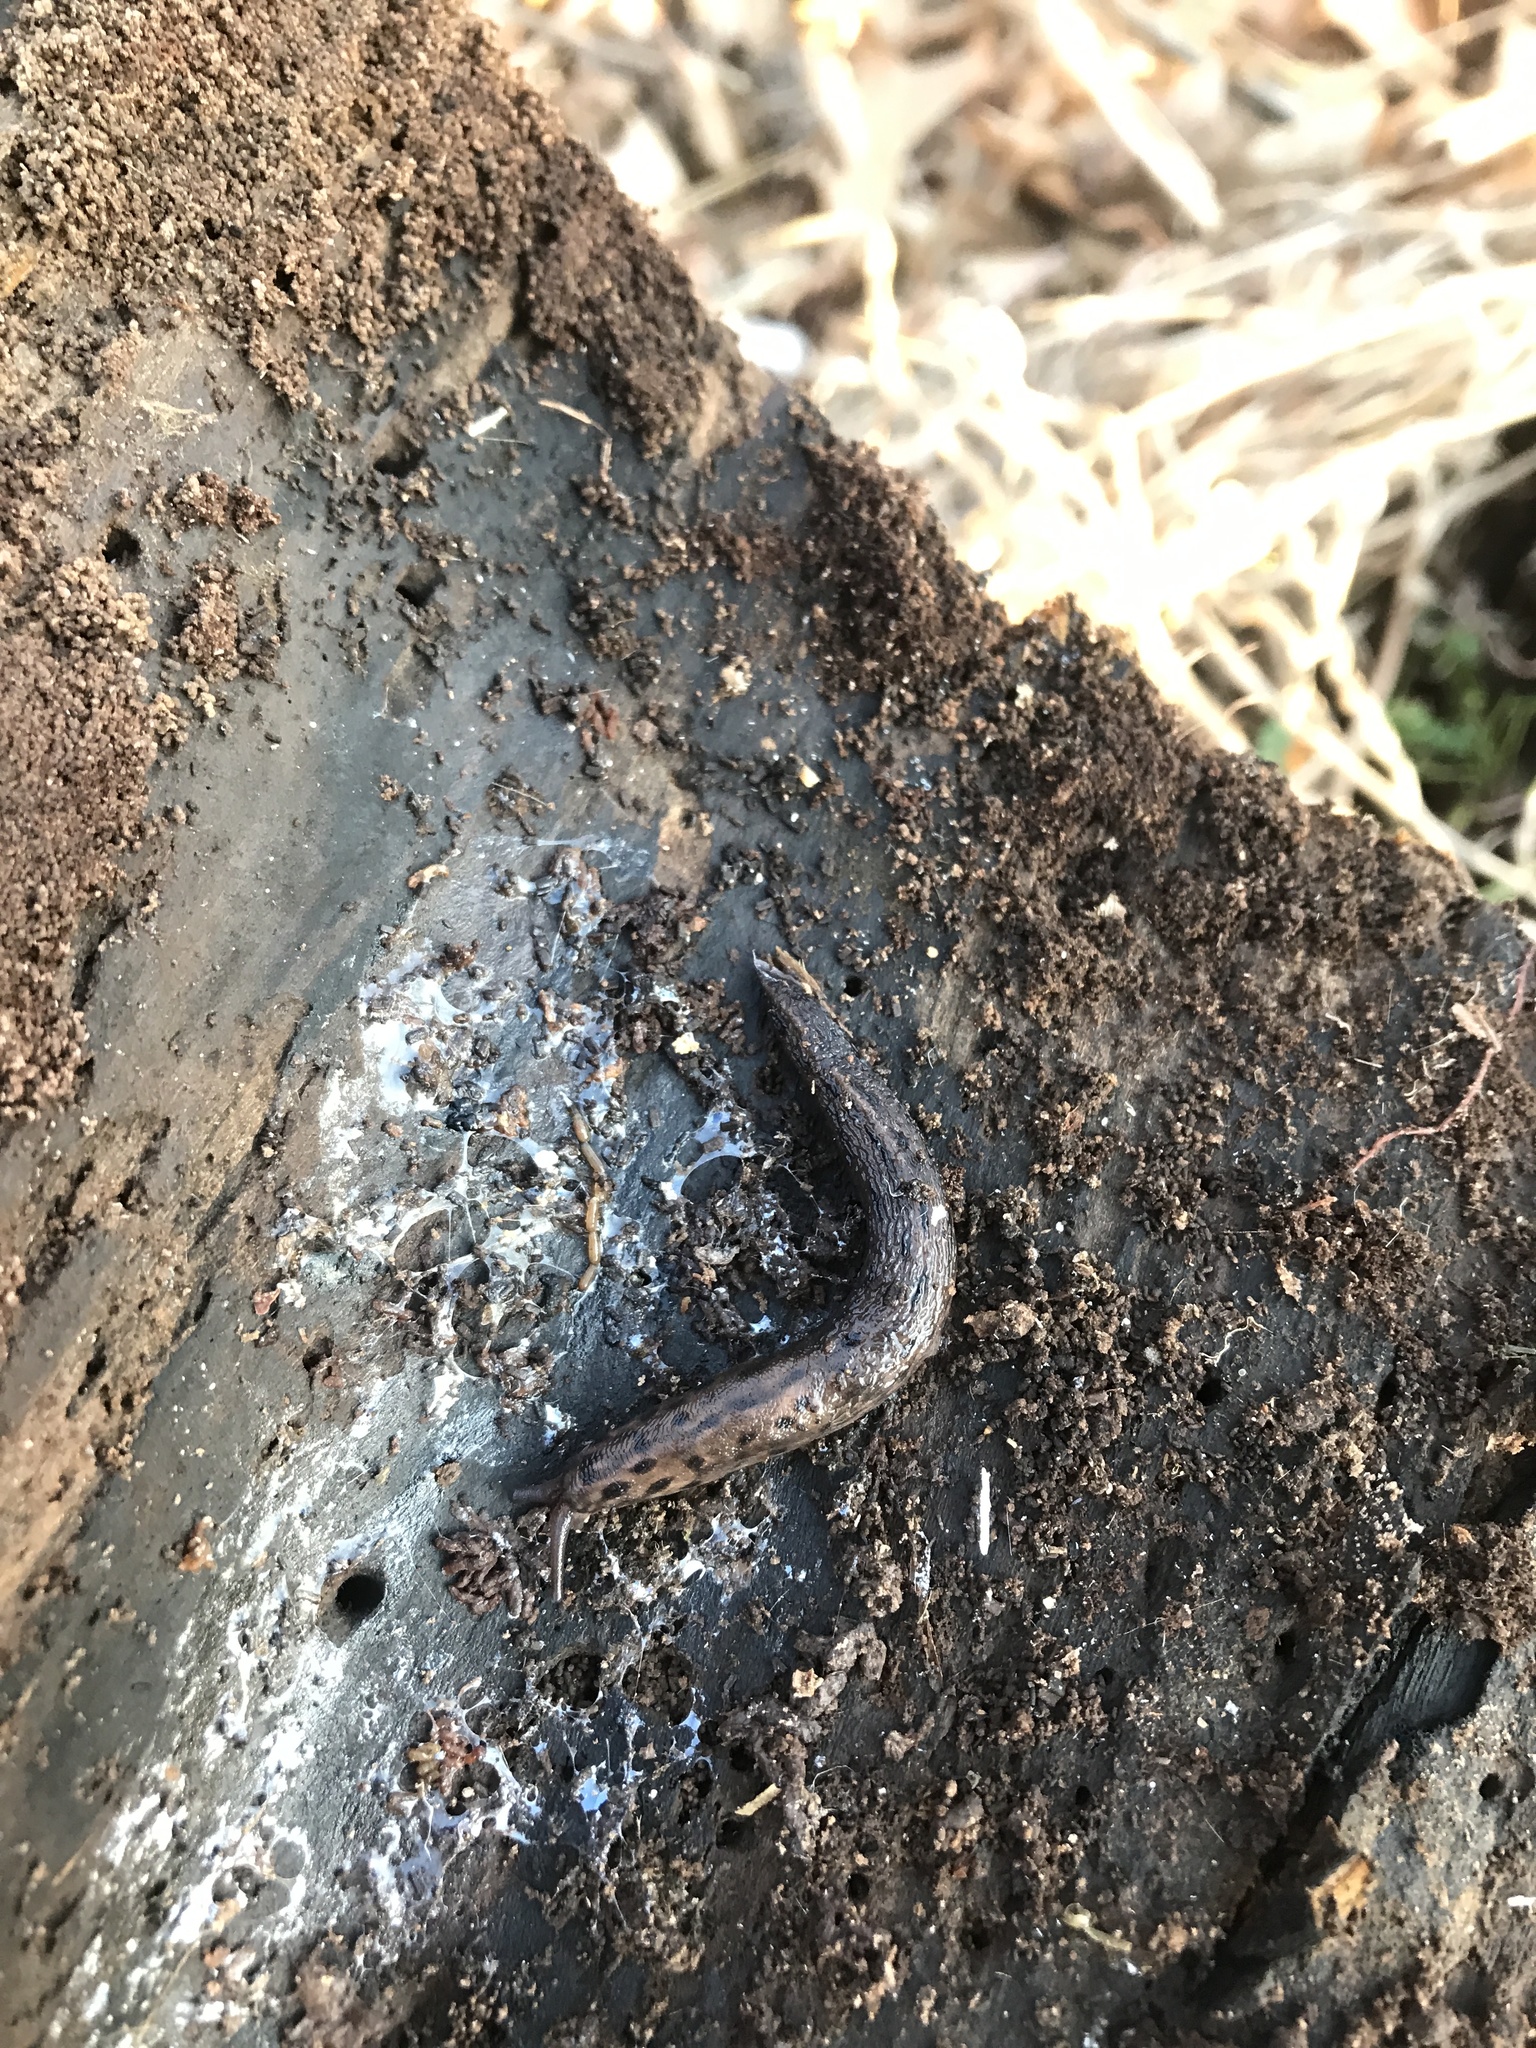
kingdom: Animalia
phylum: Mollusca
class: Gastropoda
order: Stylommatophora
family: Limacidae
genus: Limax
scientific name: Limax maximus
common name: Great grey slug
